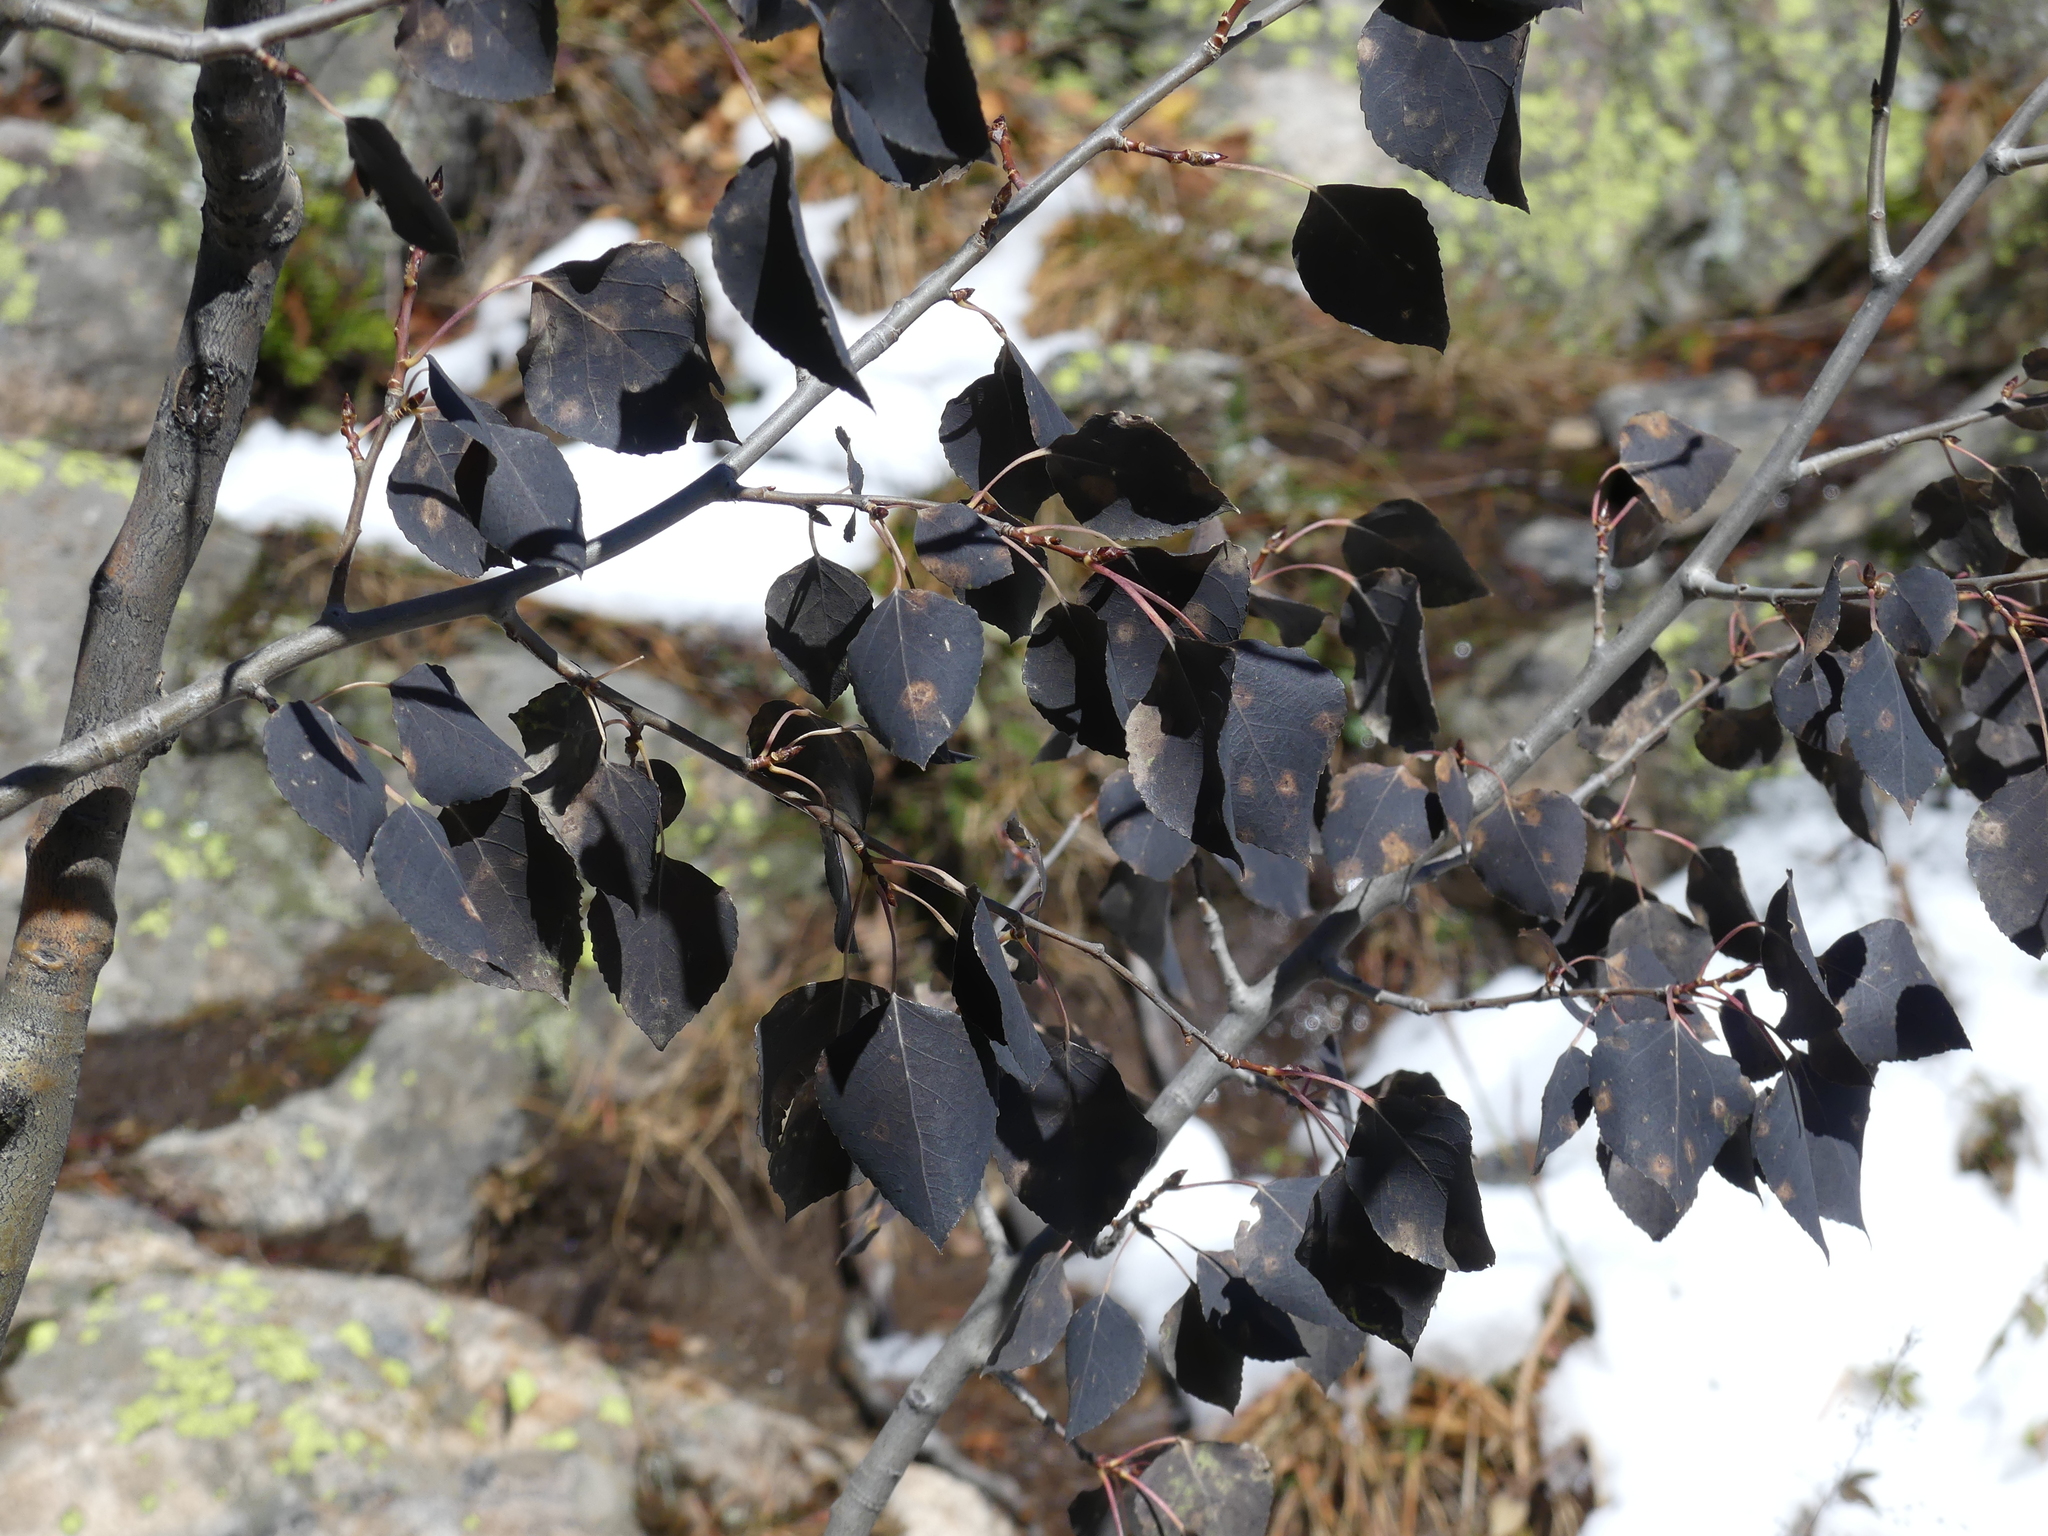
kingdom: Plantae
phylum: Tracheophyta
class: Magnoliopsida
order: Malpighiales
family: Salicaceae
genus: Populus
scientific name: Populus tremuloides
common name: Quaking aspen
